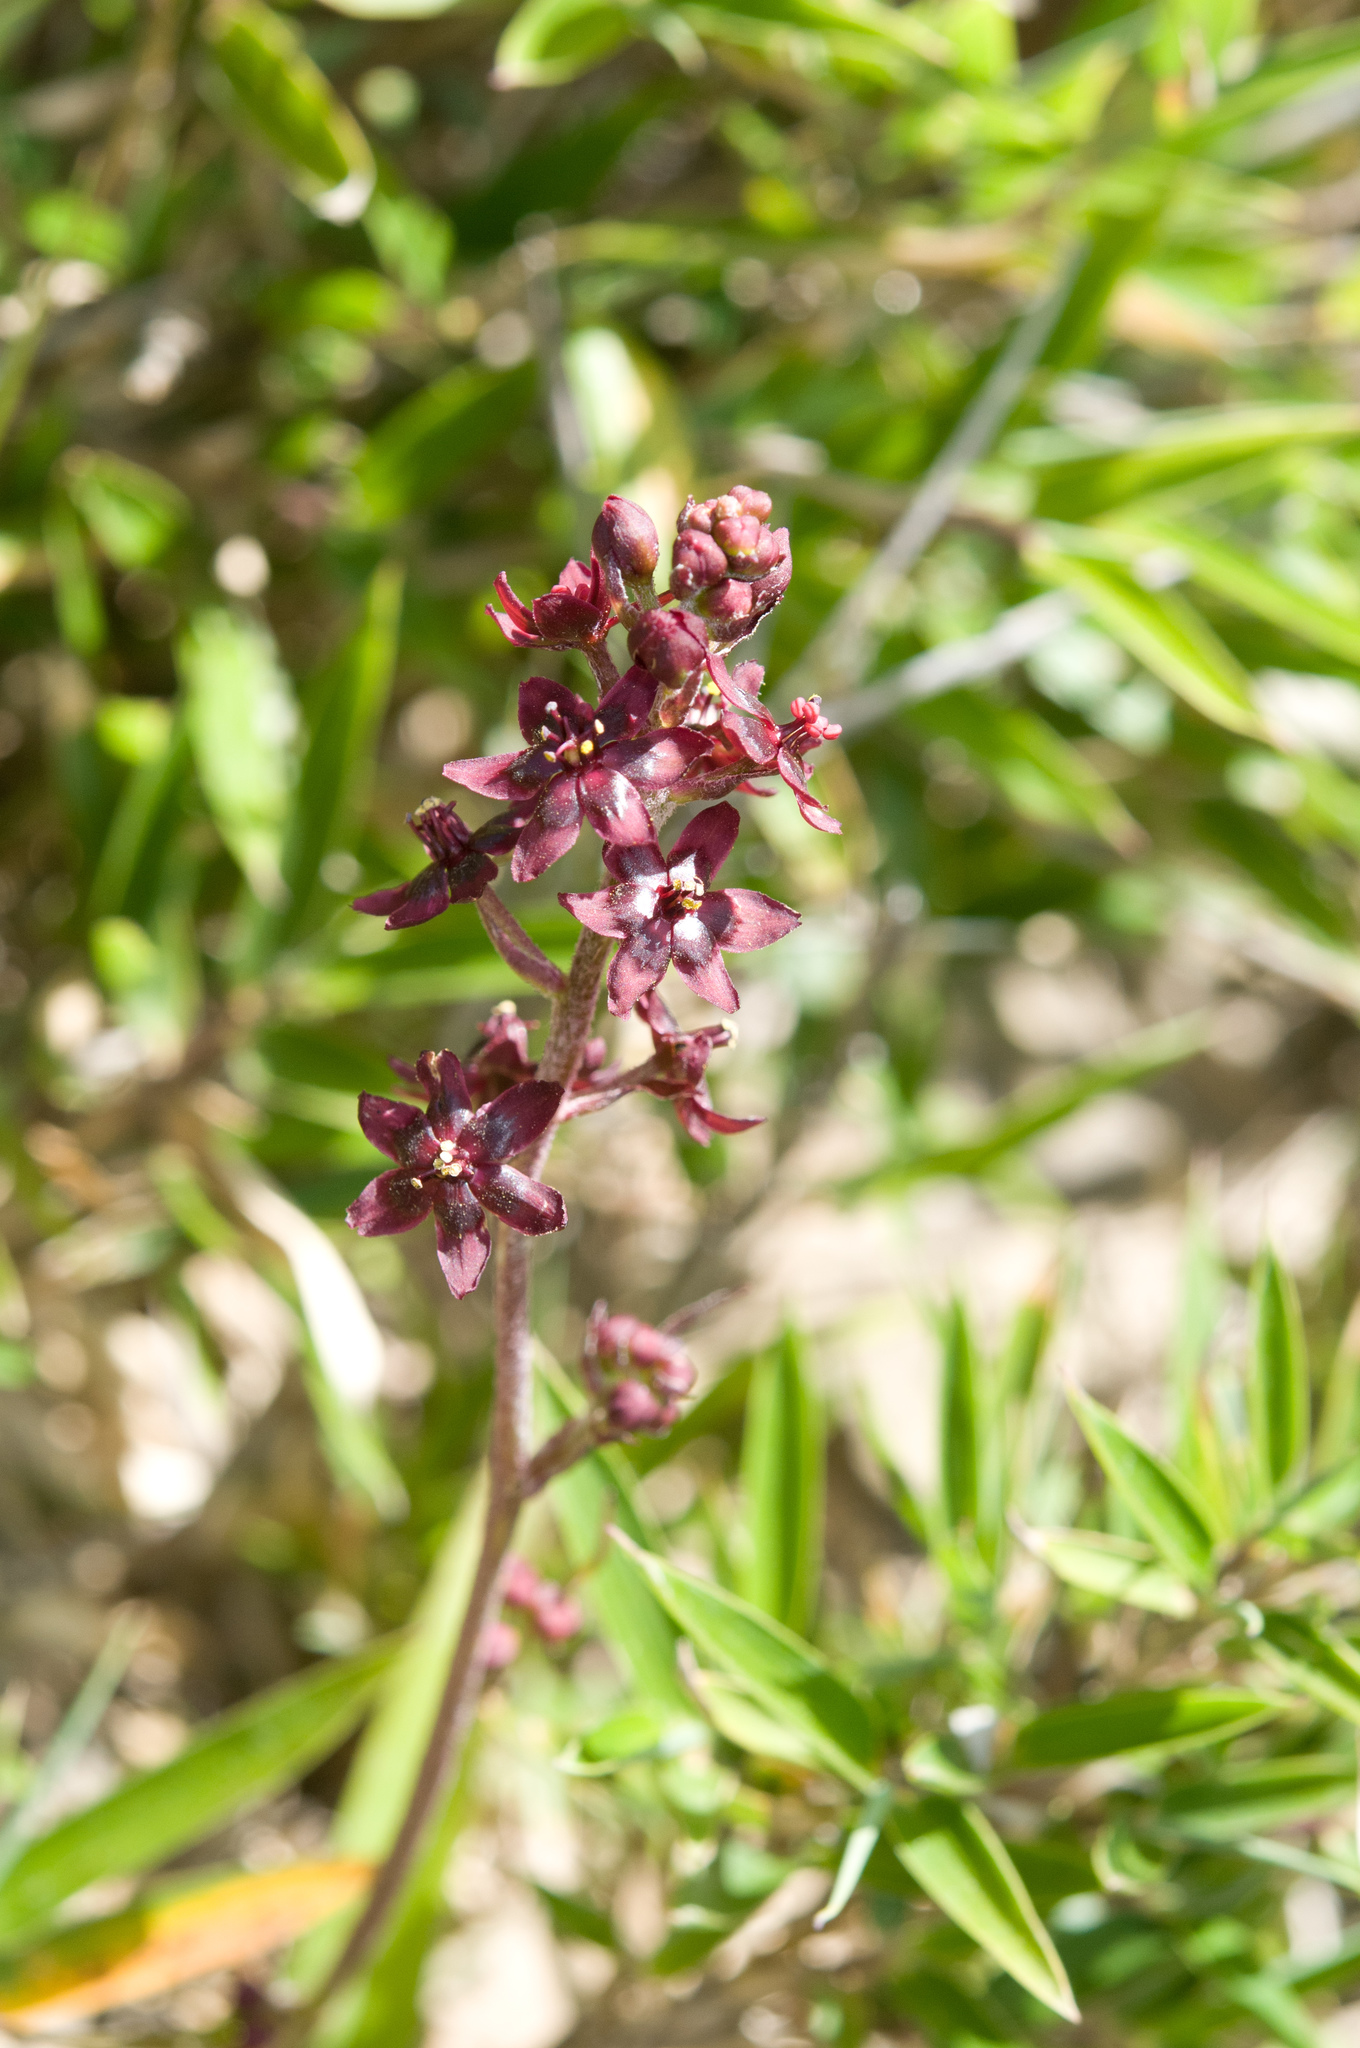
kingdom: Plantae
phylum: Tracheophyta
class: Liliopsida
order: Liliales
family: Melanthiaceae
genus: Veratrum
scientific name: Veratrum formosanum
